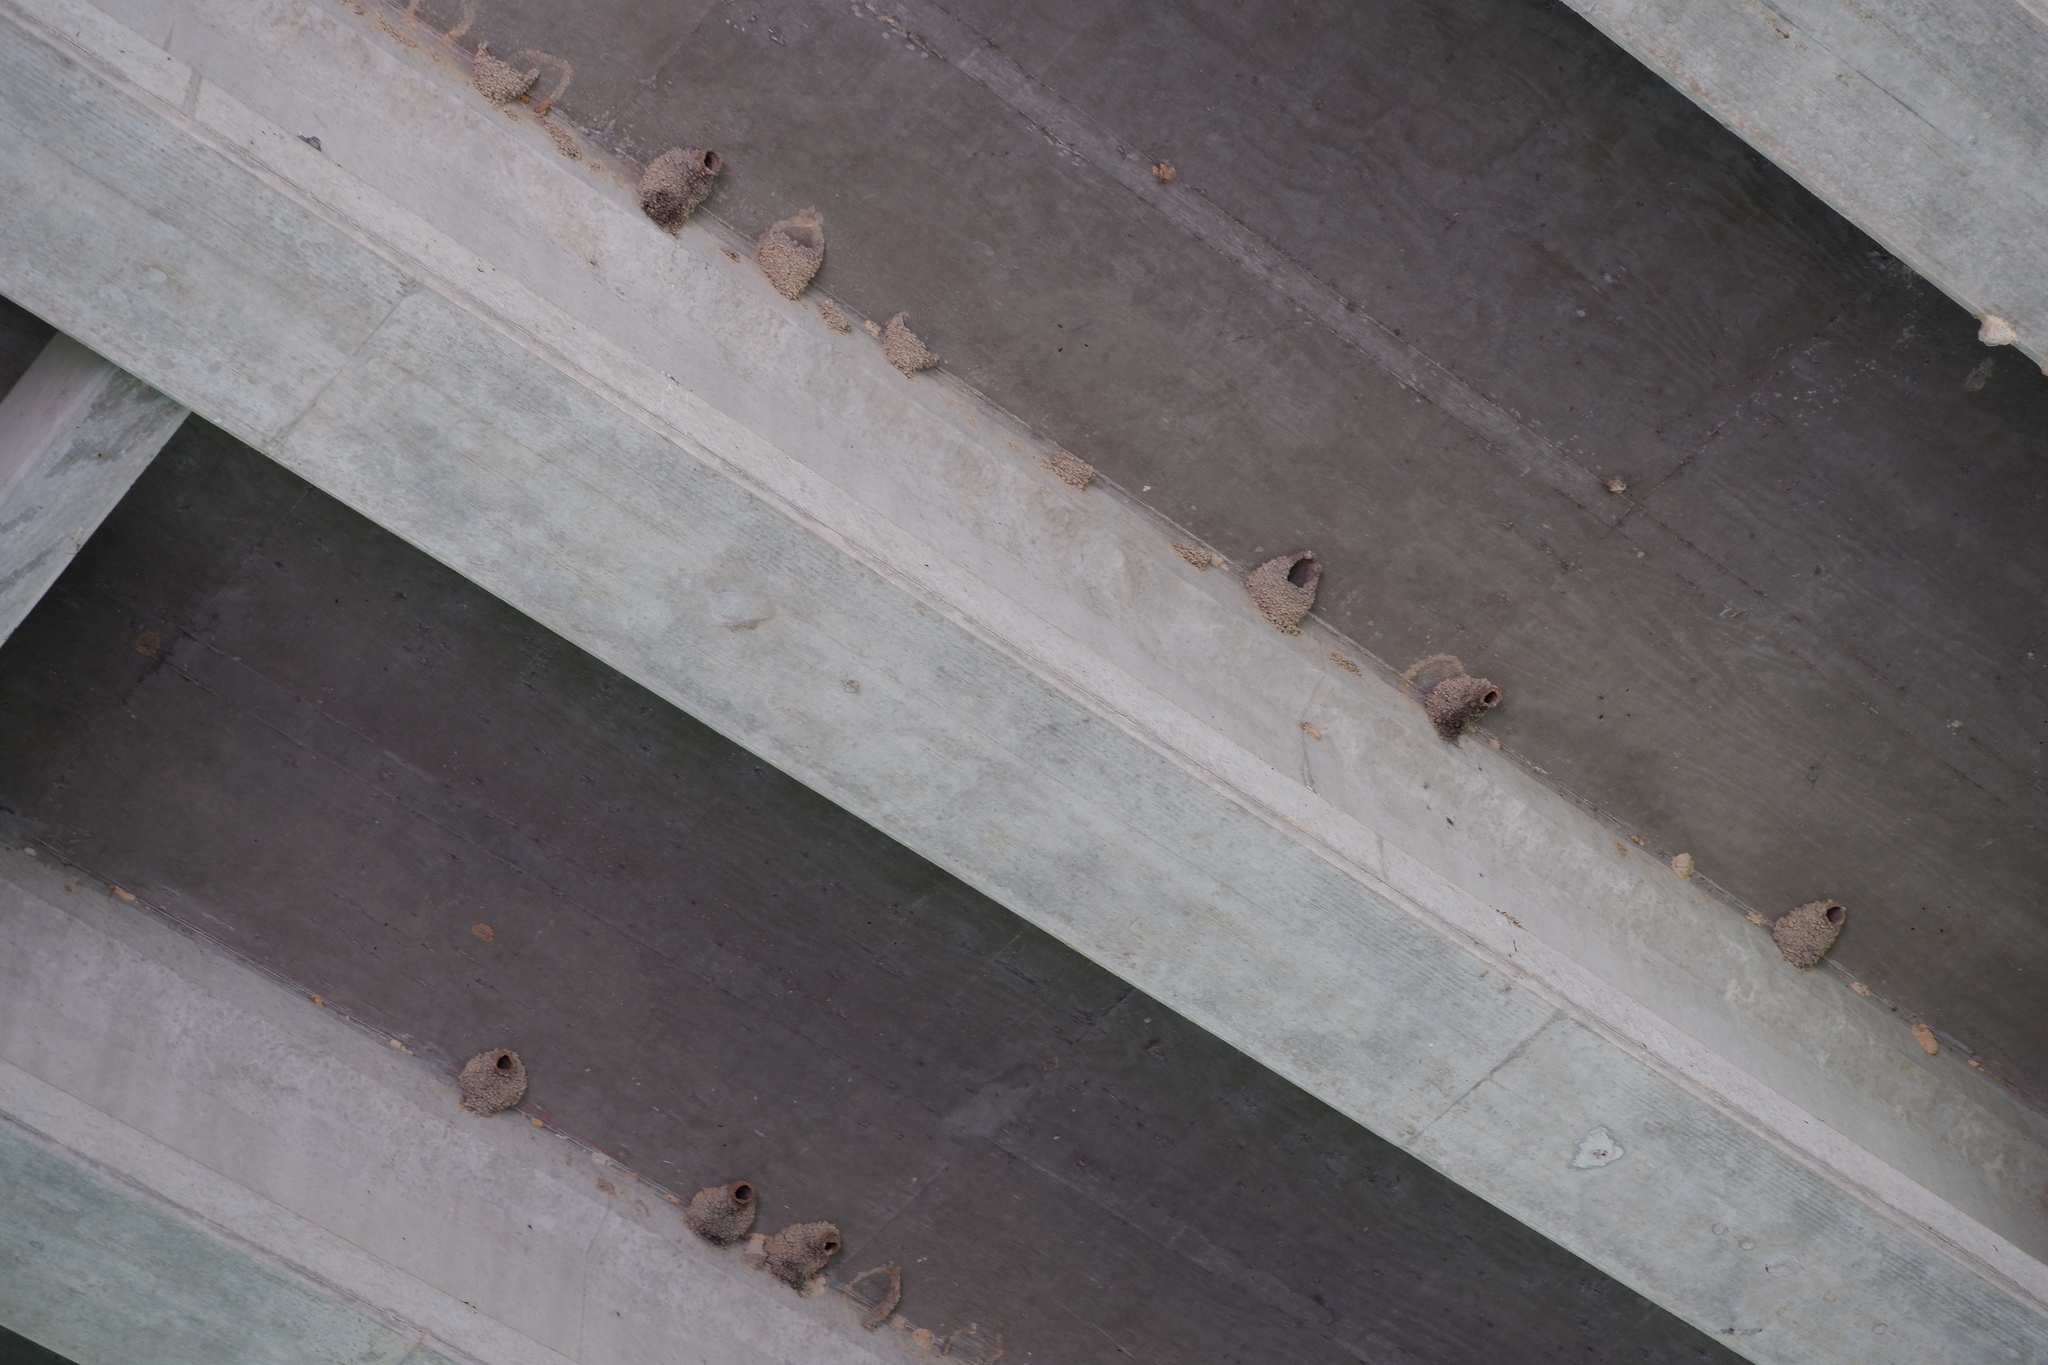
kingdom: Animalia
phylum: Chordata
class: Aves
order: Passeriformes
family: Hirundinidae
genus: Petrochelidon
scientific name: Petrochelidon pyrrhonota
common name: American cliff swallow
